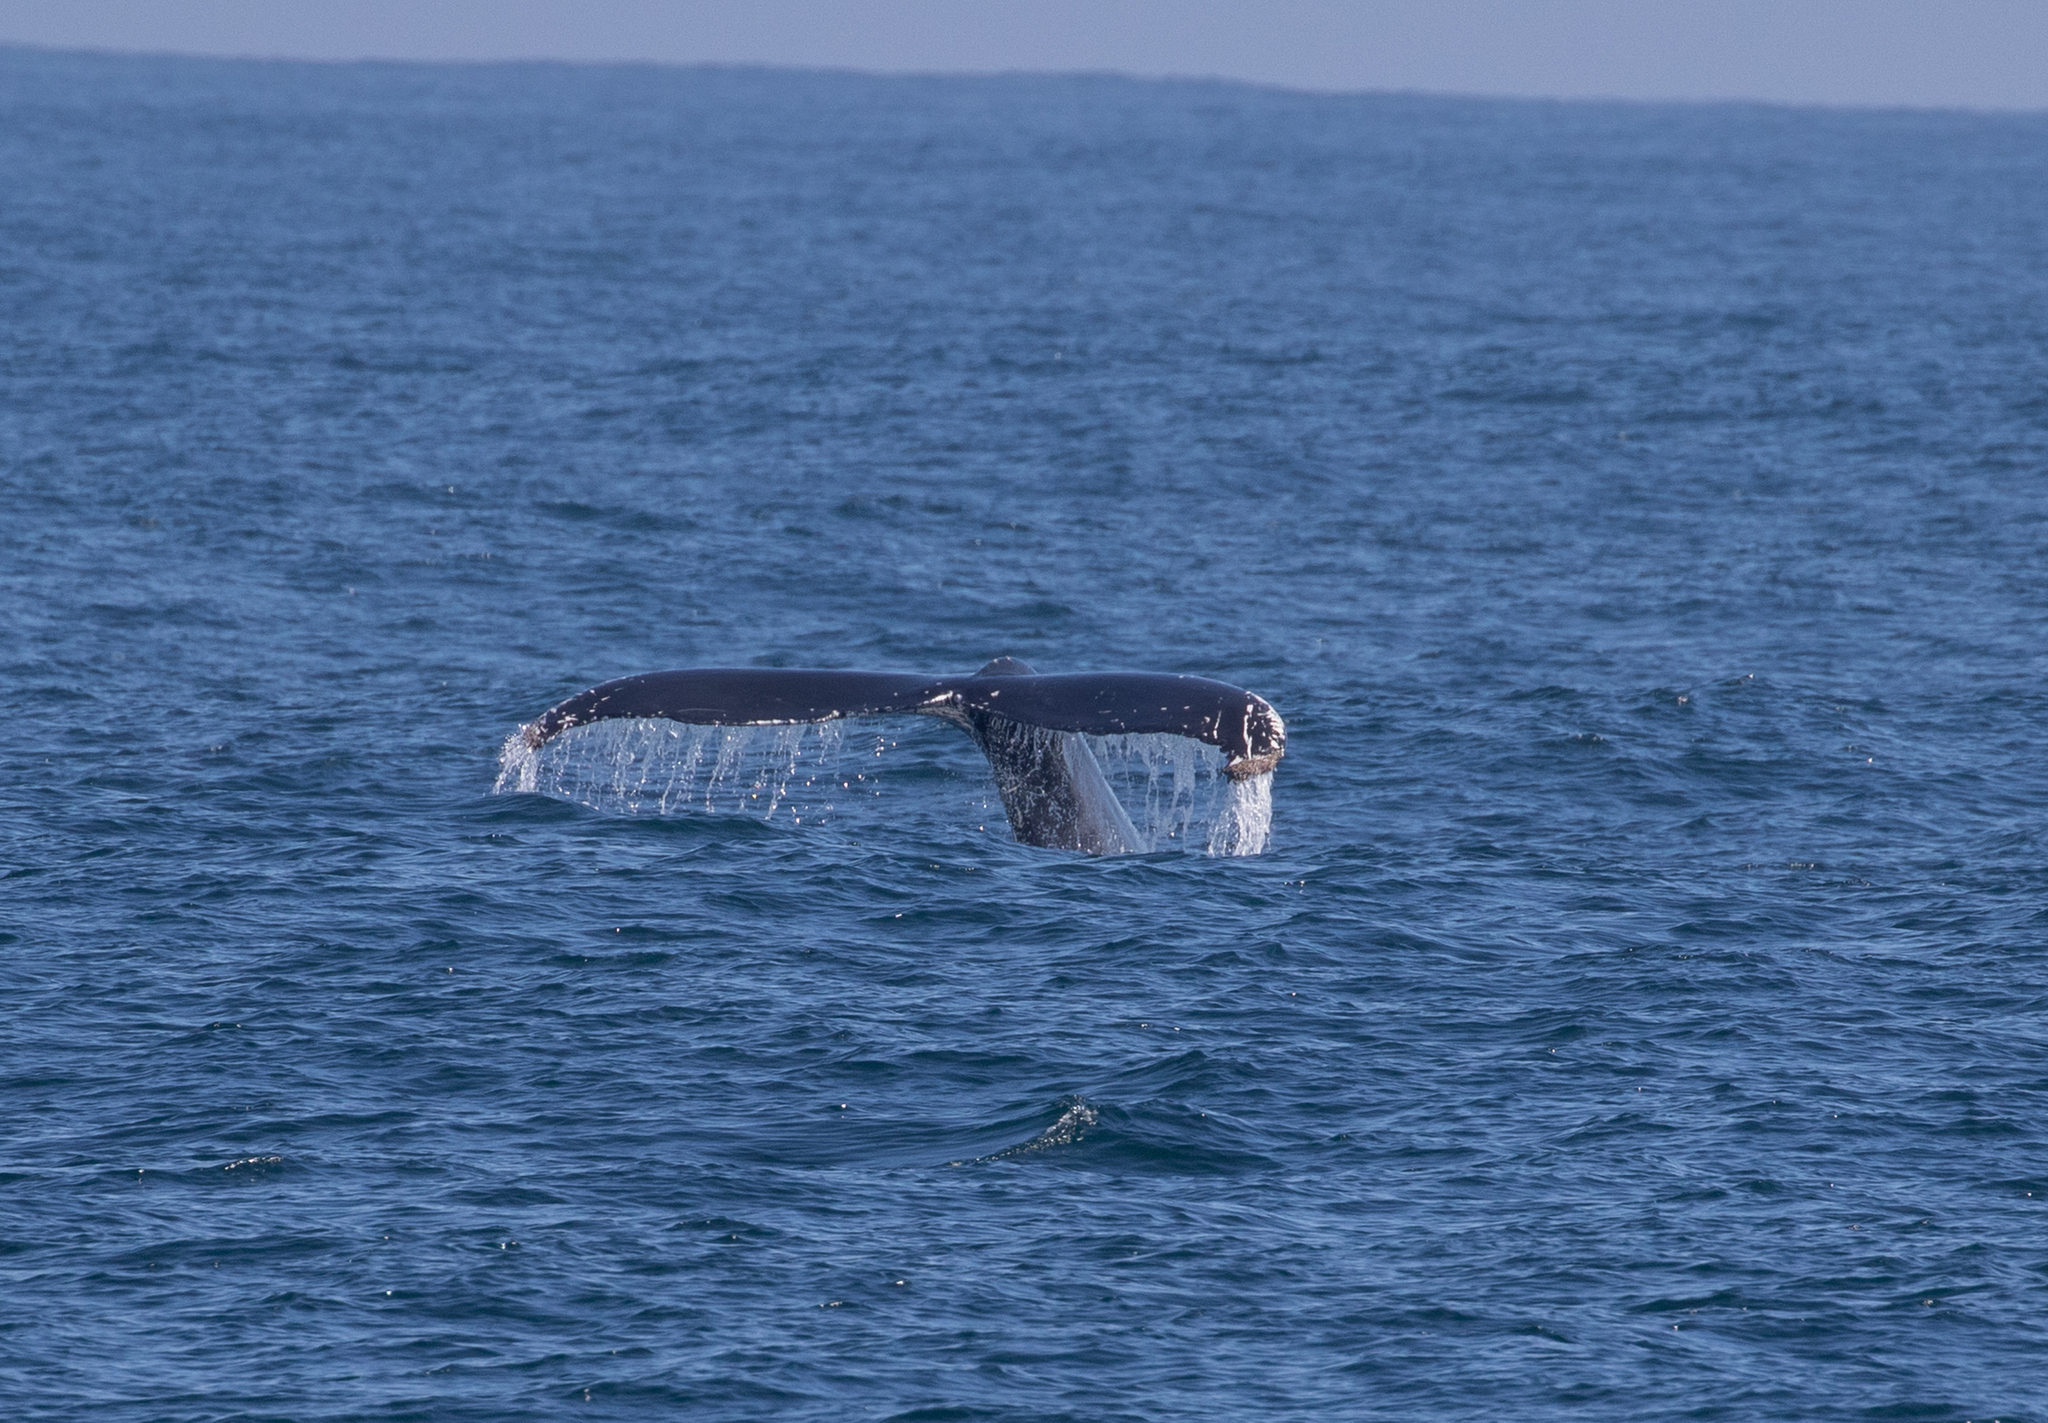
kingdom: Animalia
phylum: Chordata
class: Mammalia
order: Cetacea
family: Balaenopteridae
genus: Megaptera
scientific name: Megaptera novaeangliae
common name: Humpback whale
